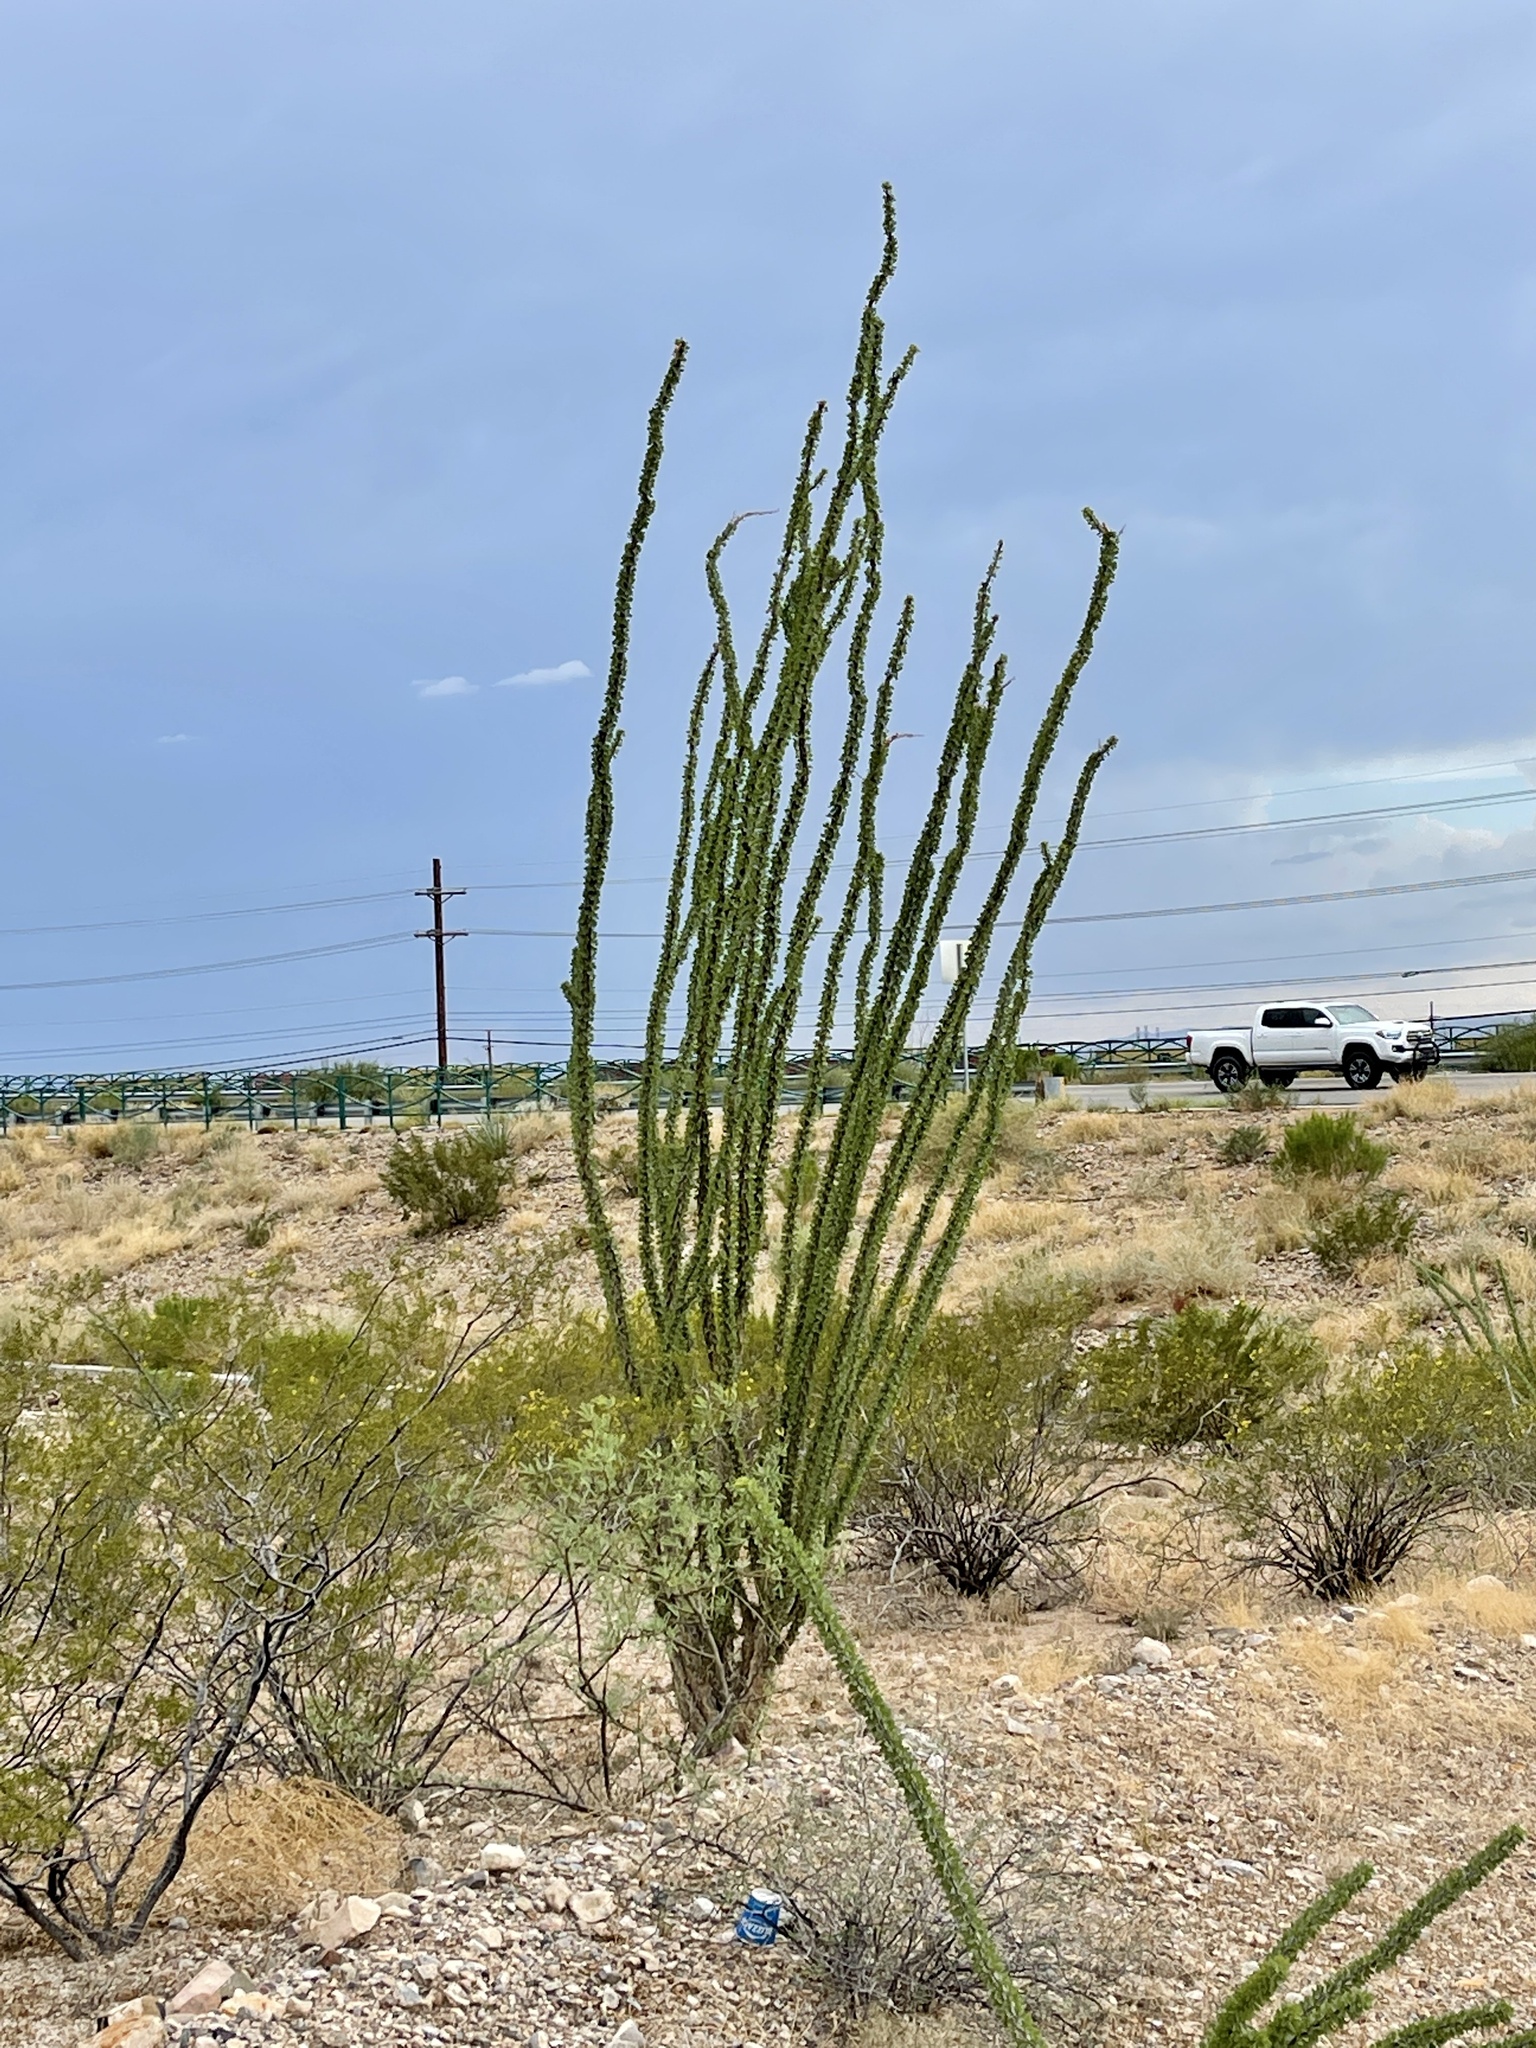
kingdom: Plantae
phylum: Tracheophyta
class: Magnoliopsida
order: Ericales
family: Fouquieriaceae
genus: Fouquieria
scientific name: Fouquieria splendens
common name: Vine-cactus
